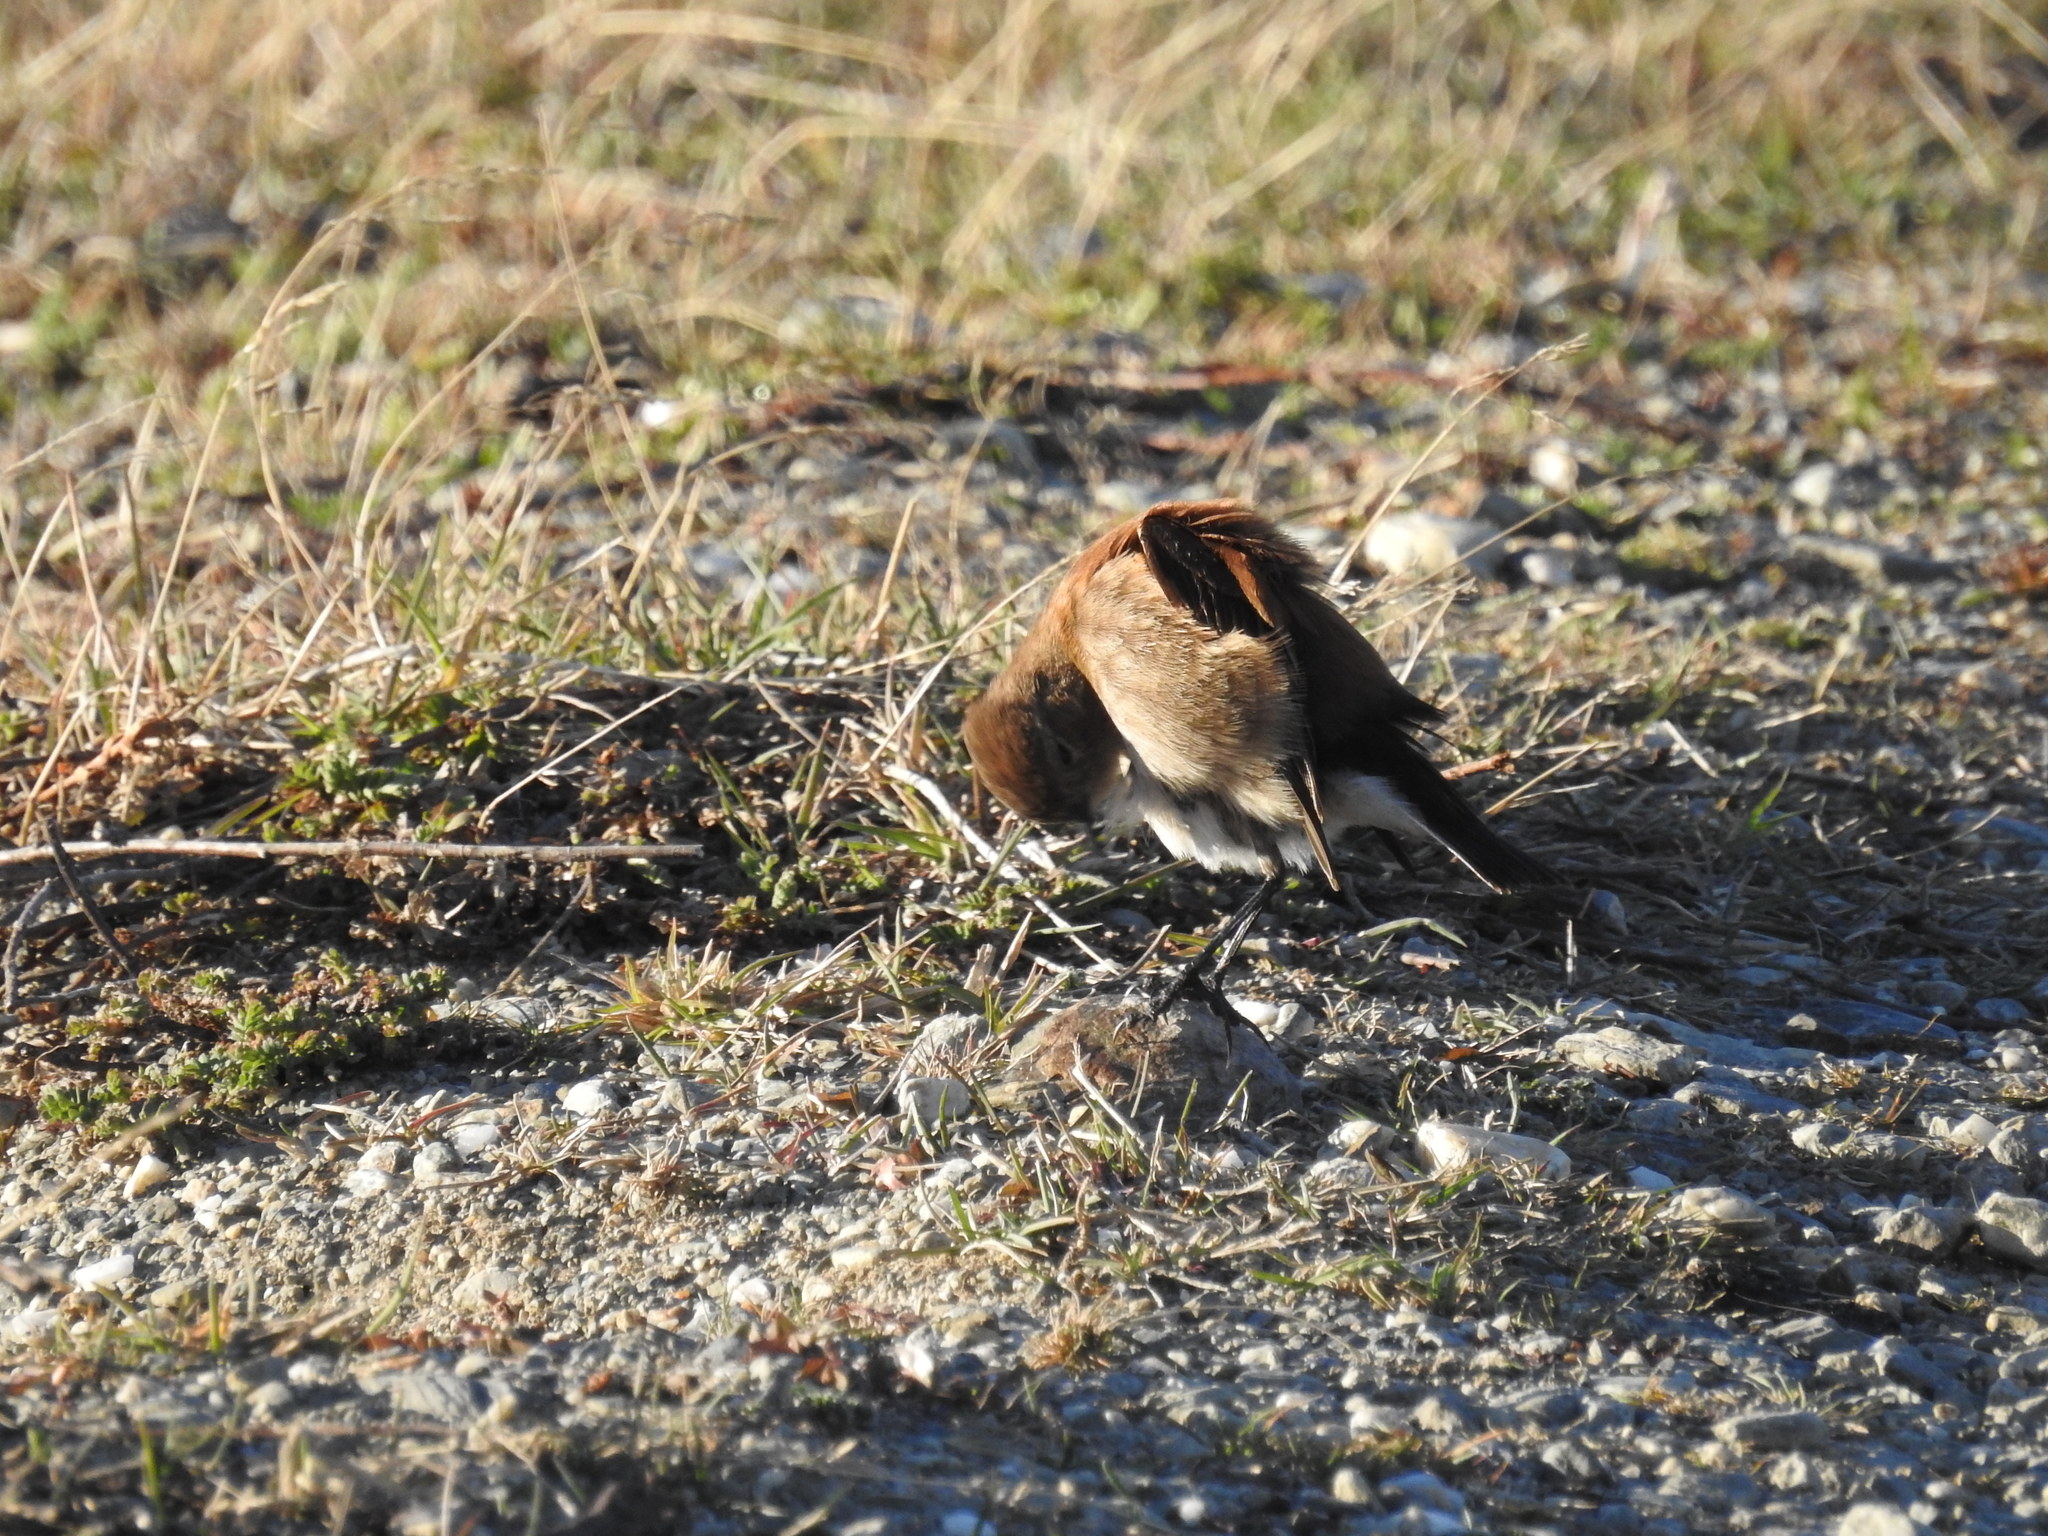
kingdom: Animalia
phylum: Chordata
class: Aves
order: Passeriformes
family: Tyrannidae
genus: Lessonia
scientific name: Lessonia rufa
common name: Austral negrito
